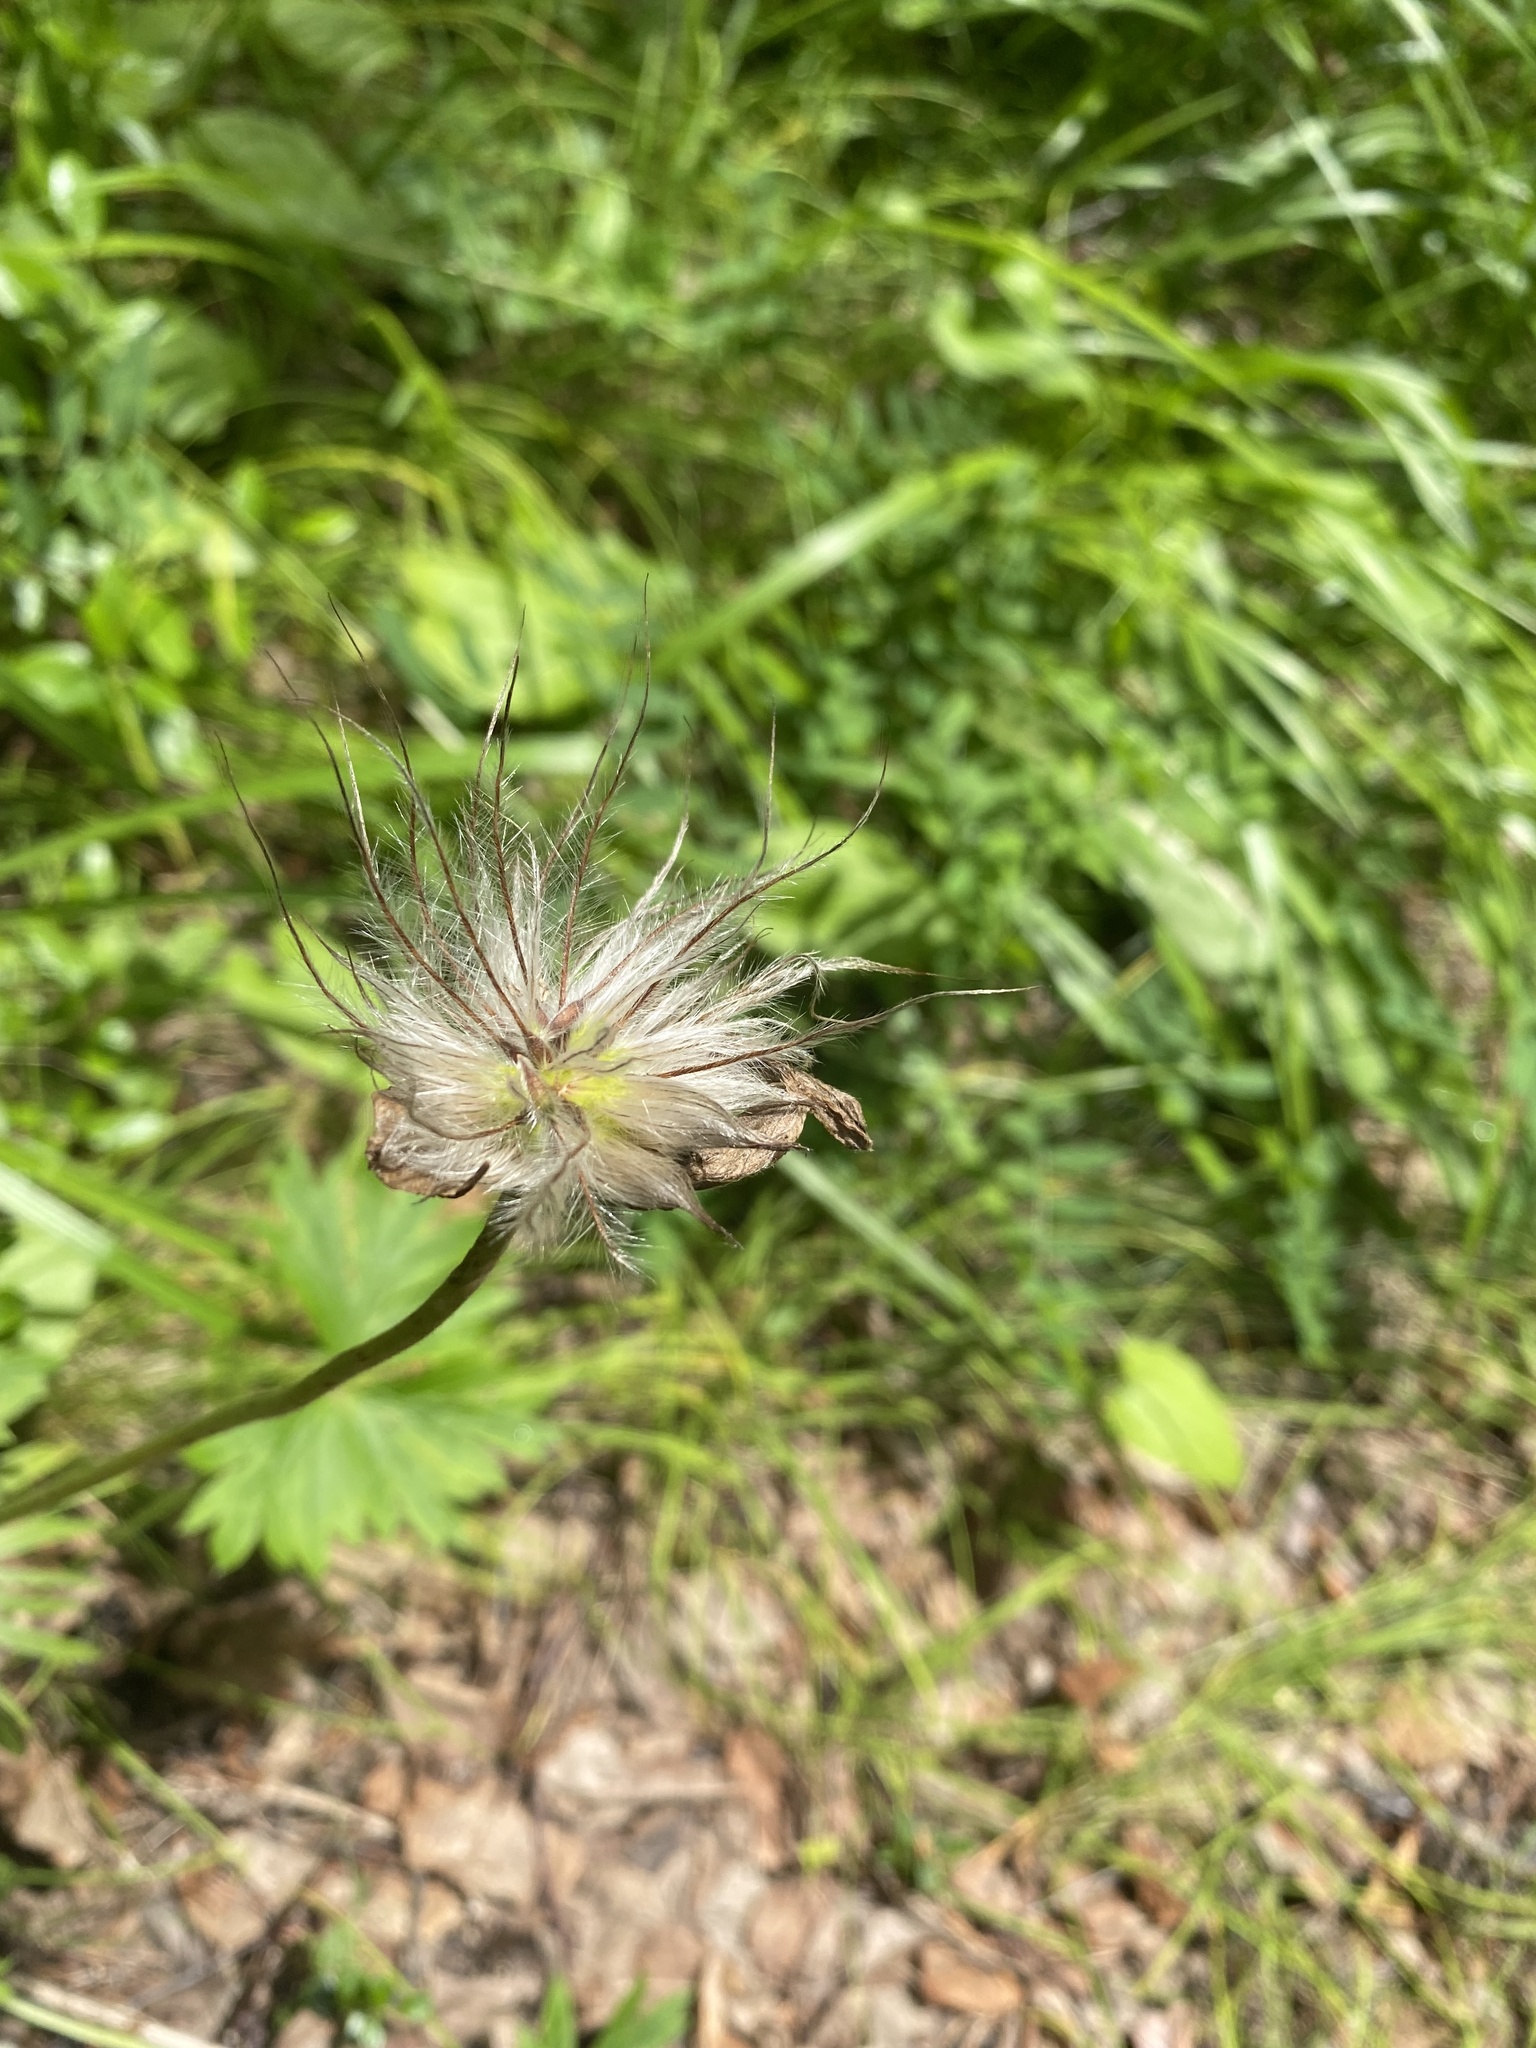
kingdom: Plantae
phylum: Tracheophyta
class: Magnoliopsida
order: Ranunculales
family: Ranunculaceae
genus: Anemonastrum
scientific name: Anemonastrum narcissiflorum
